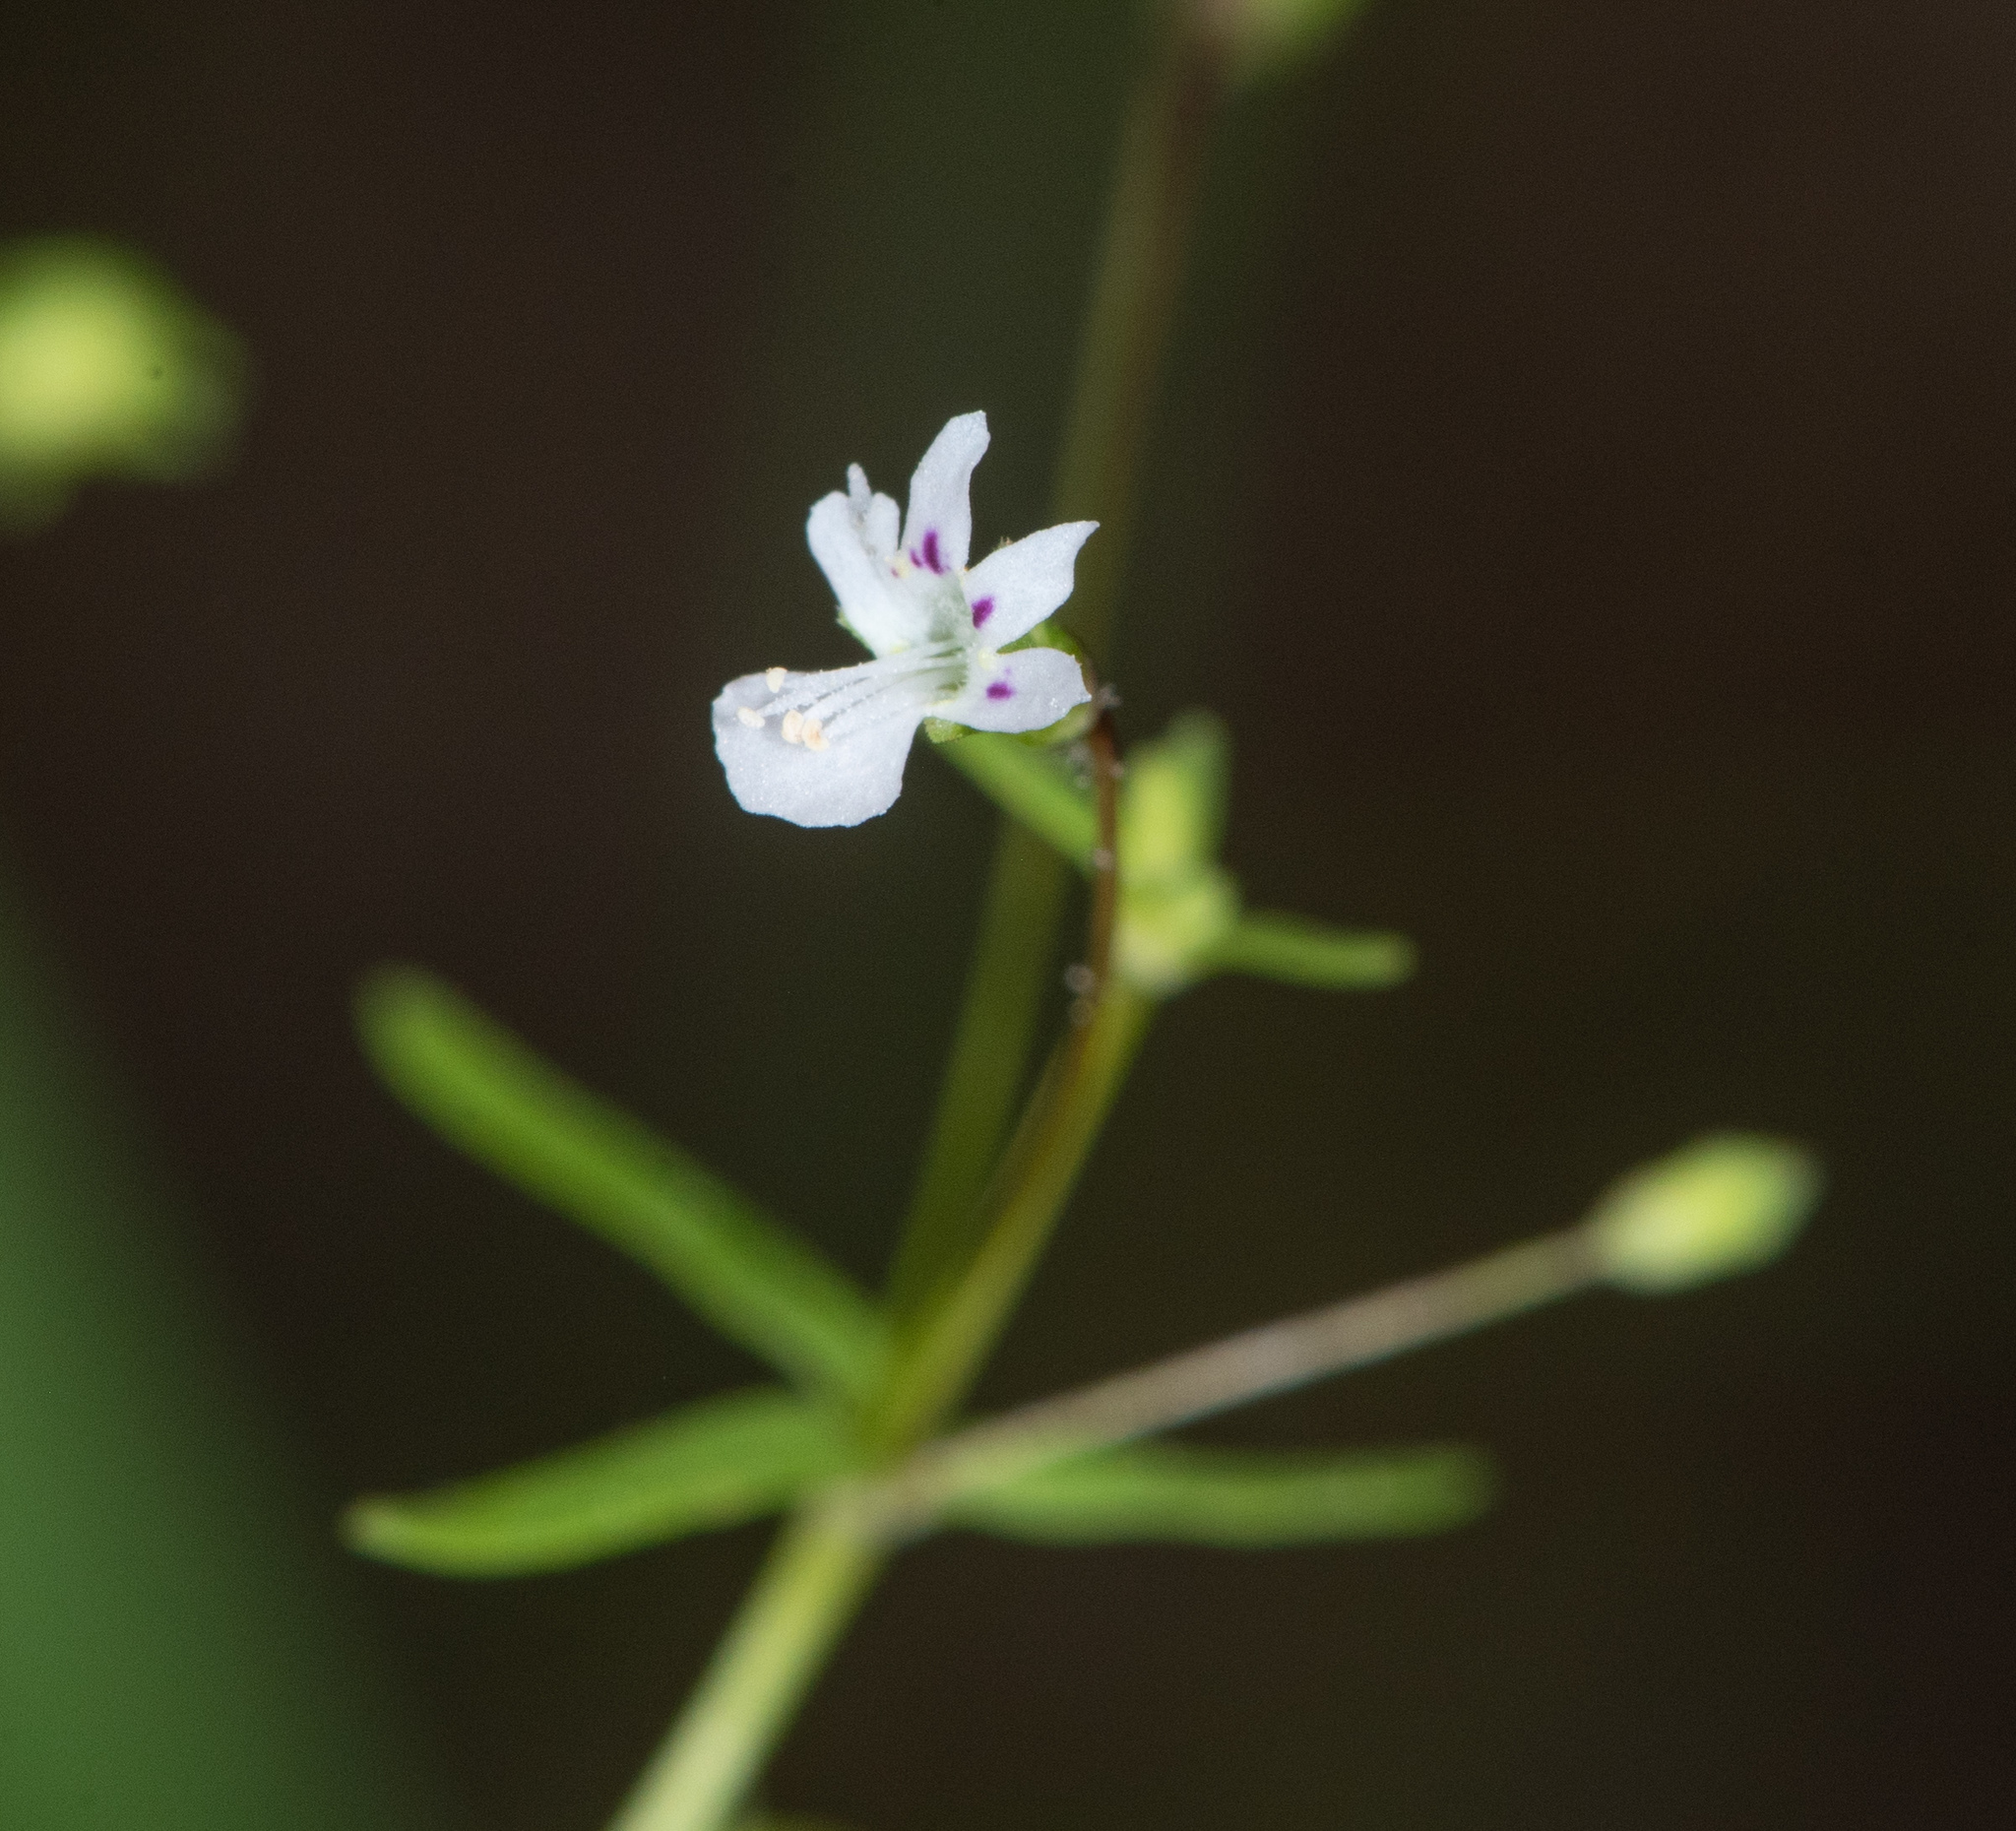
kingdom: Plantae
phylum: Tracheophyta
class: Magnoliopsida
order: Lamiales
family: Plantaginaceae
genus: Tonella
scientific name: Tonella tenella
